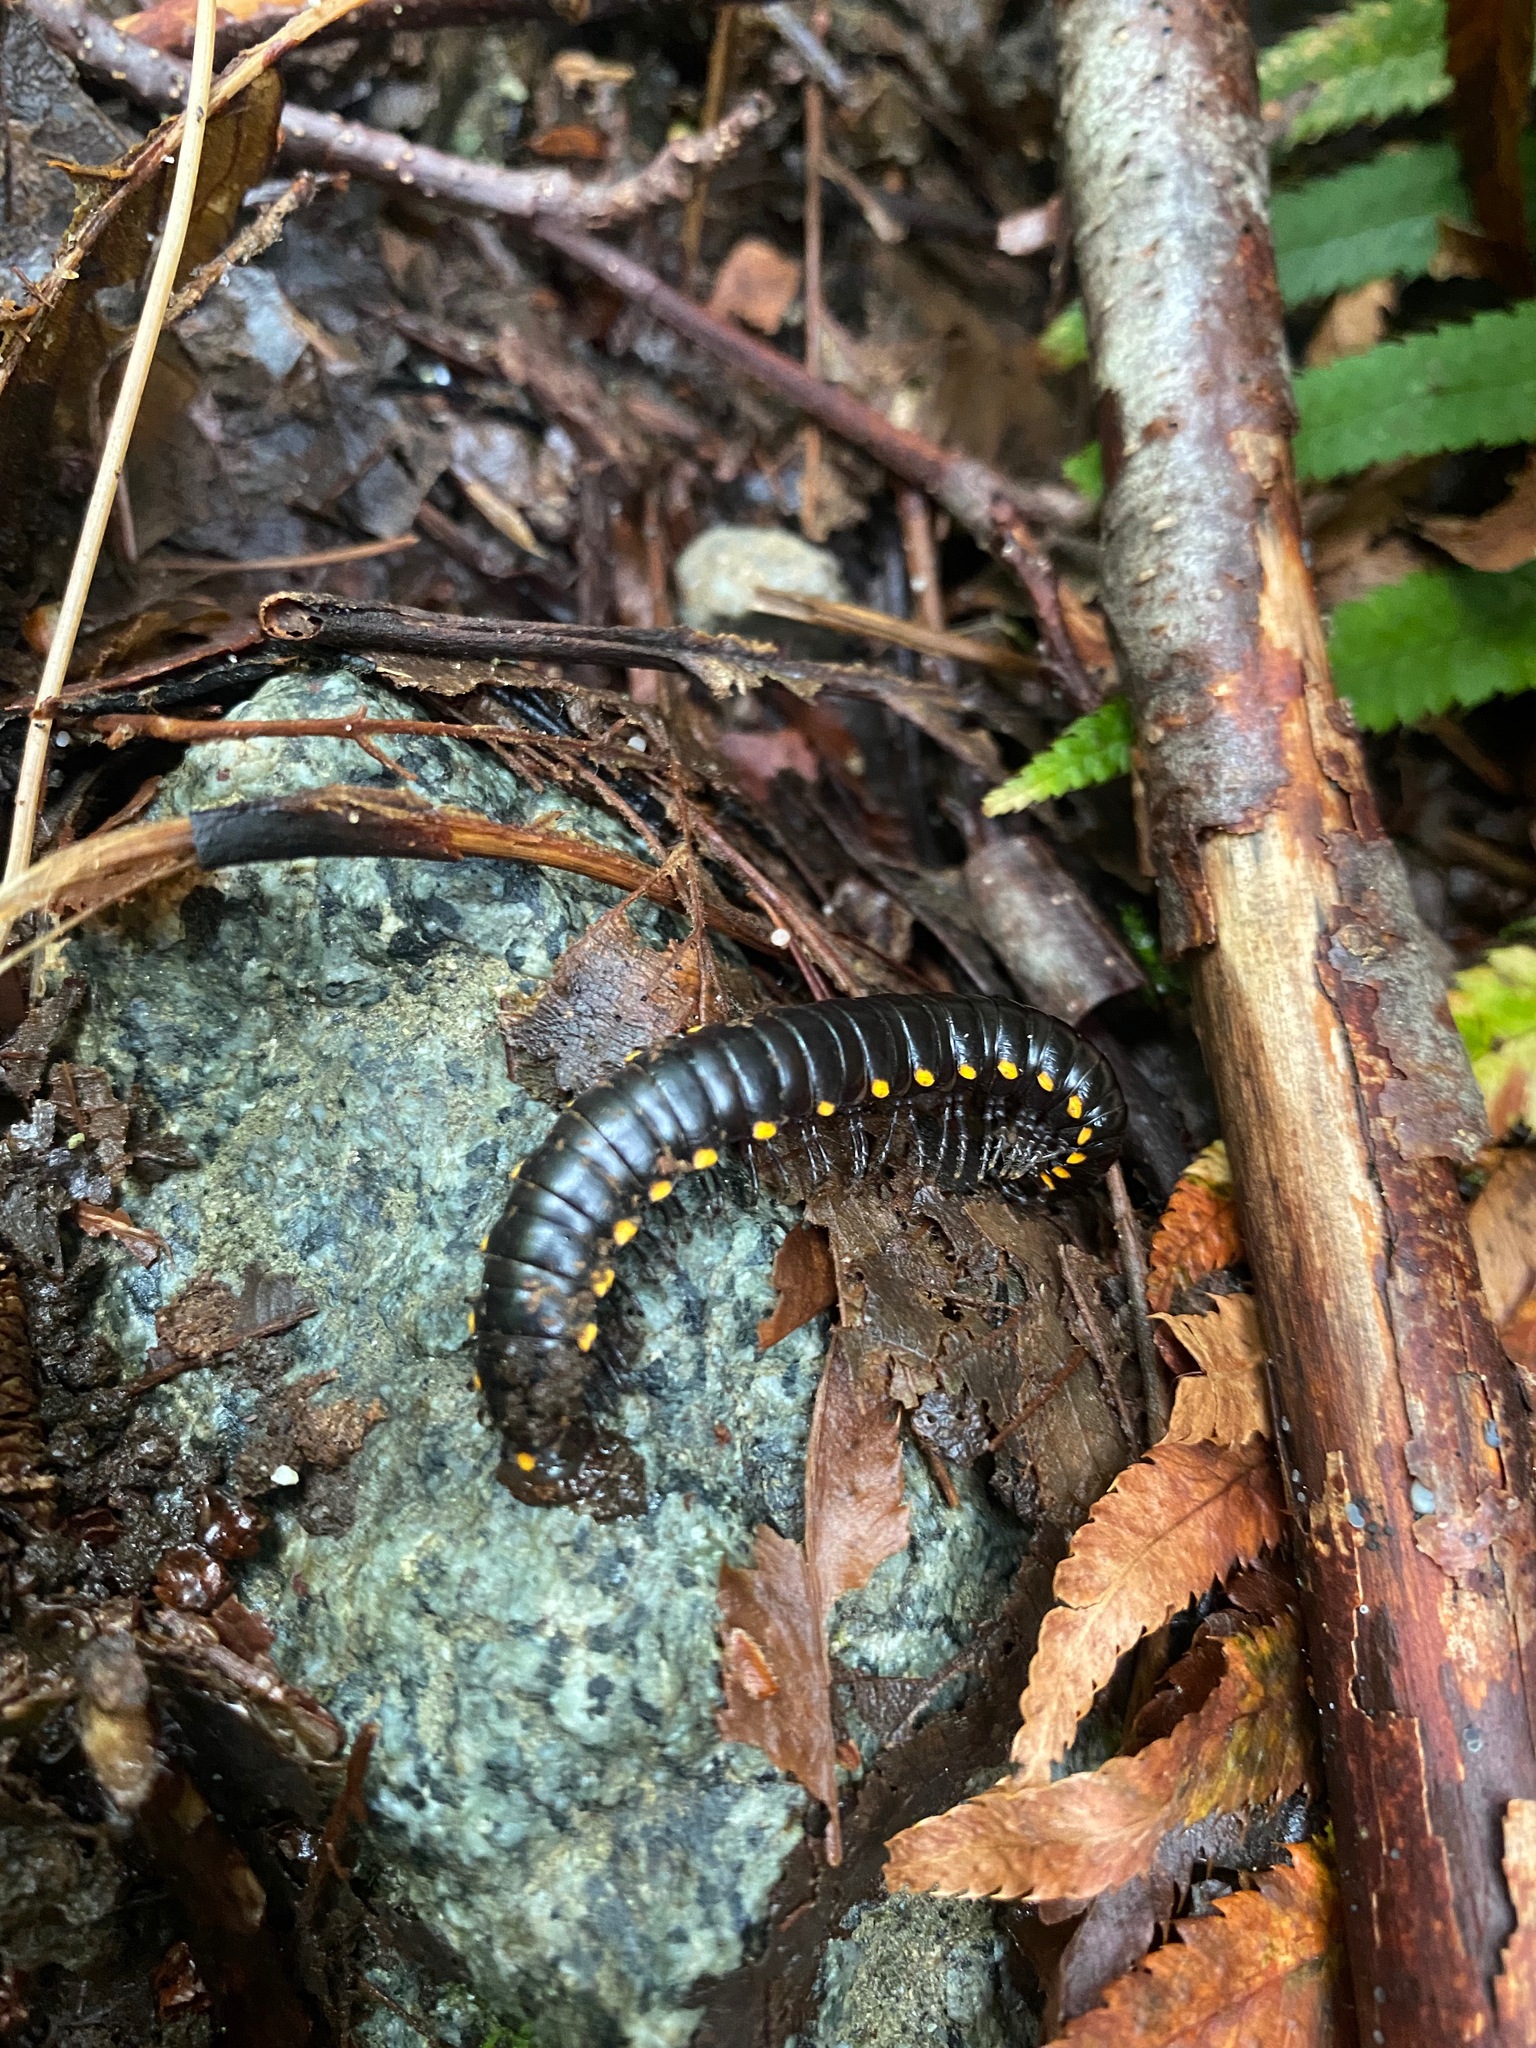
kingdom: Animalia
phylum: Arthropoda
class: Diplopoda
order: Polydesmida
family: Xystodesmidae
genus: Harpaphe
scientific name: Harpaphe haydeniana
